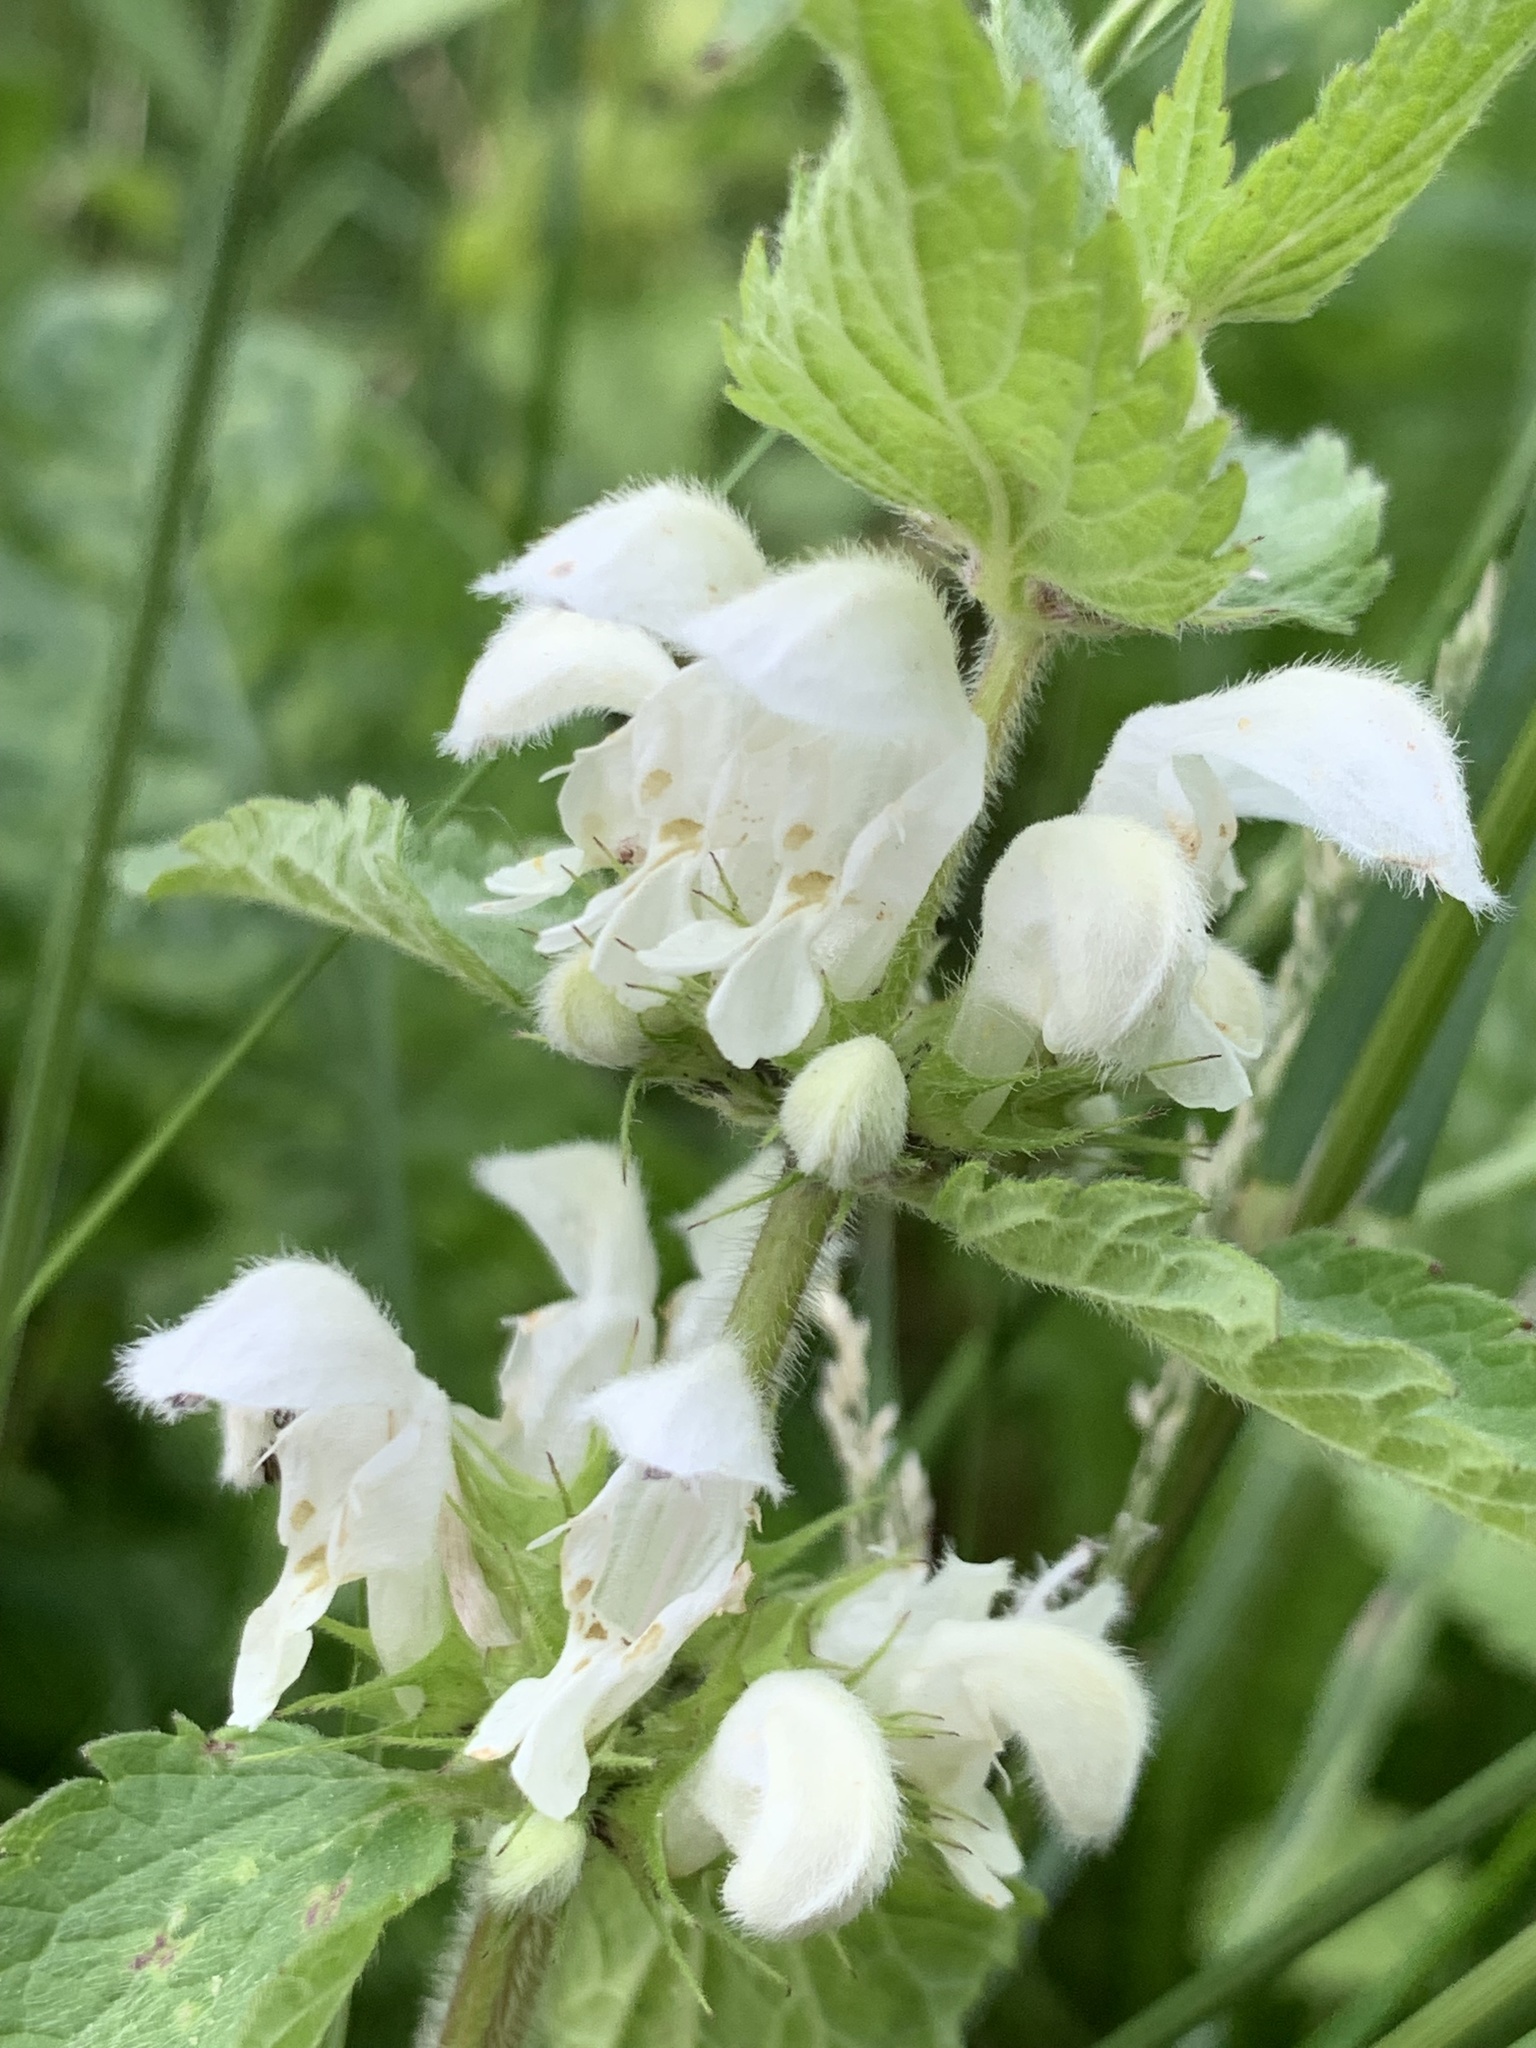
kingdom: Plantae
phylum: Tracheophyta
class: Magnoliopsida
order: Lamiales
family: Lamiaceae
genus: Lamium
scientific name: Lamium album
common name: White dead-nettle
